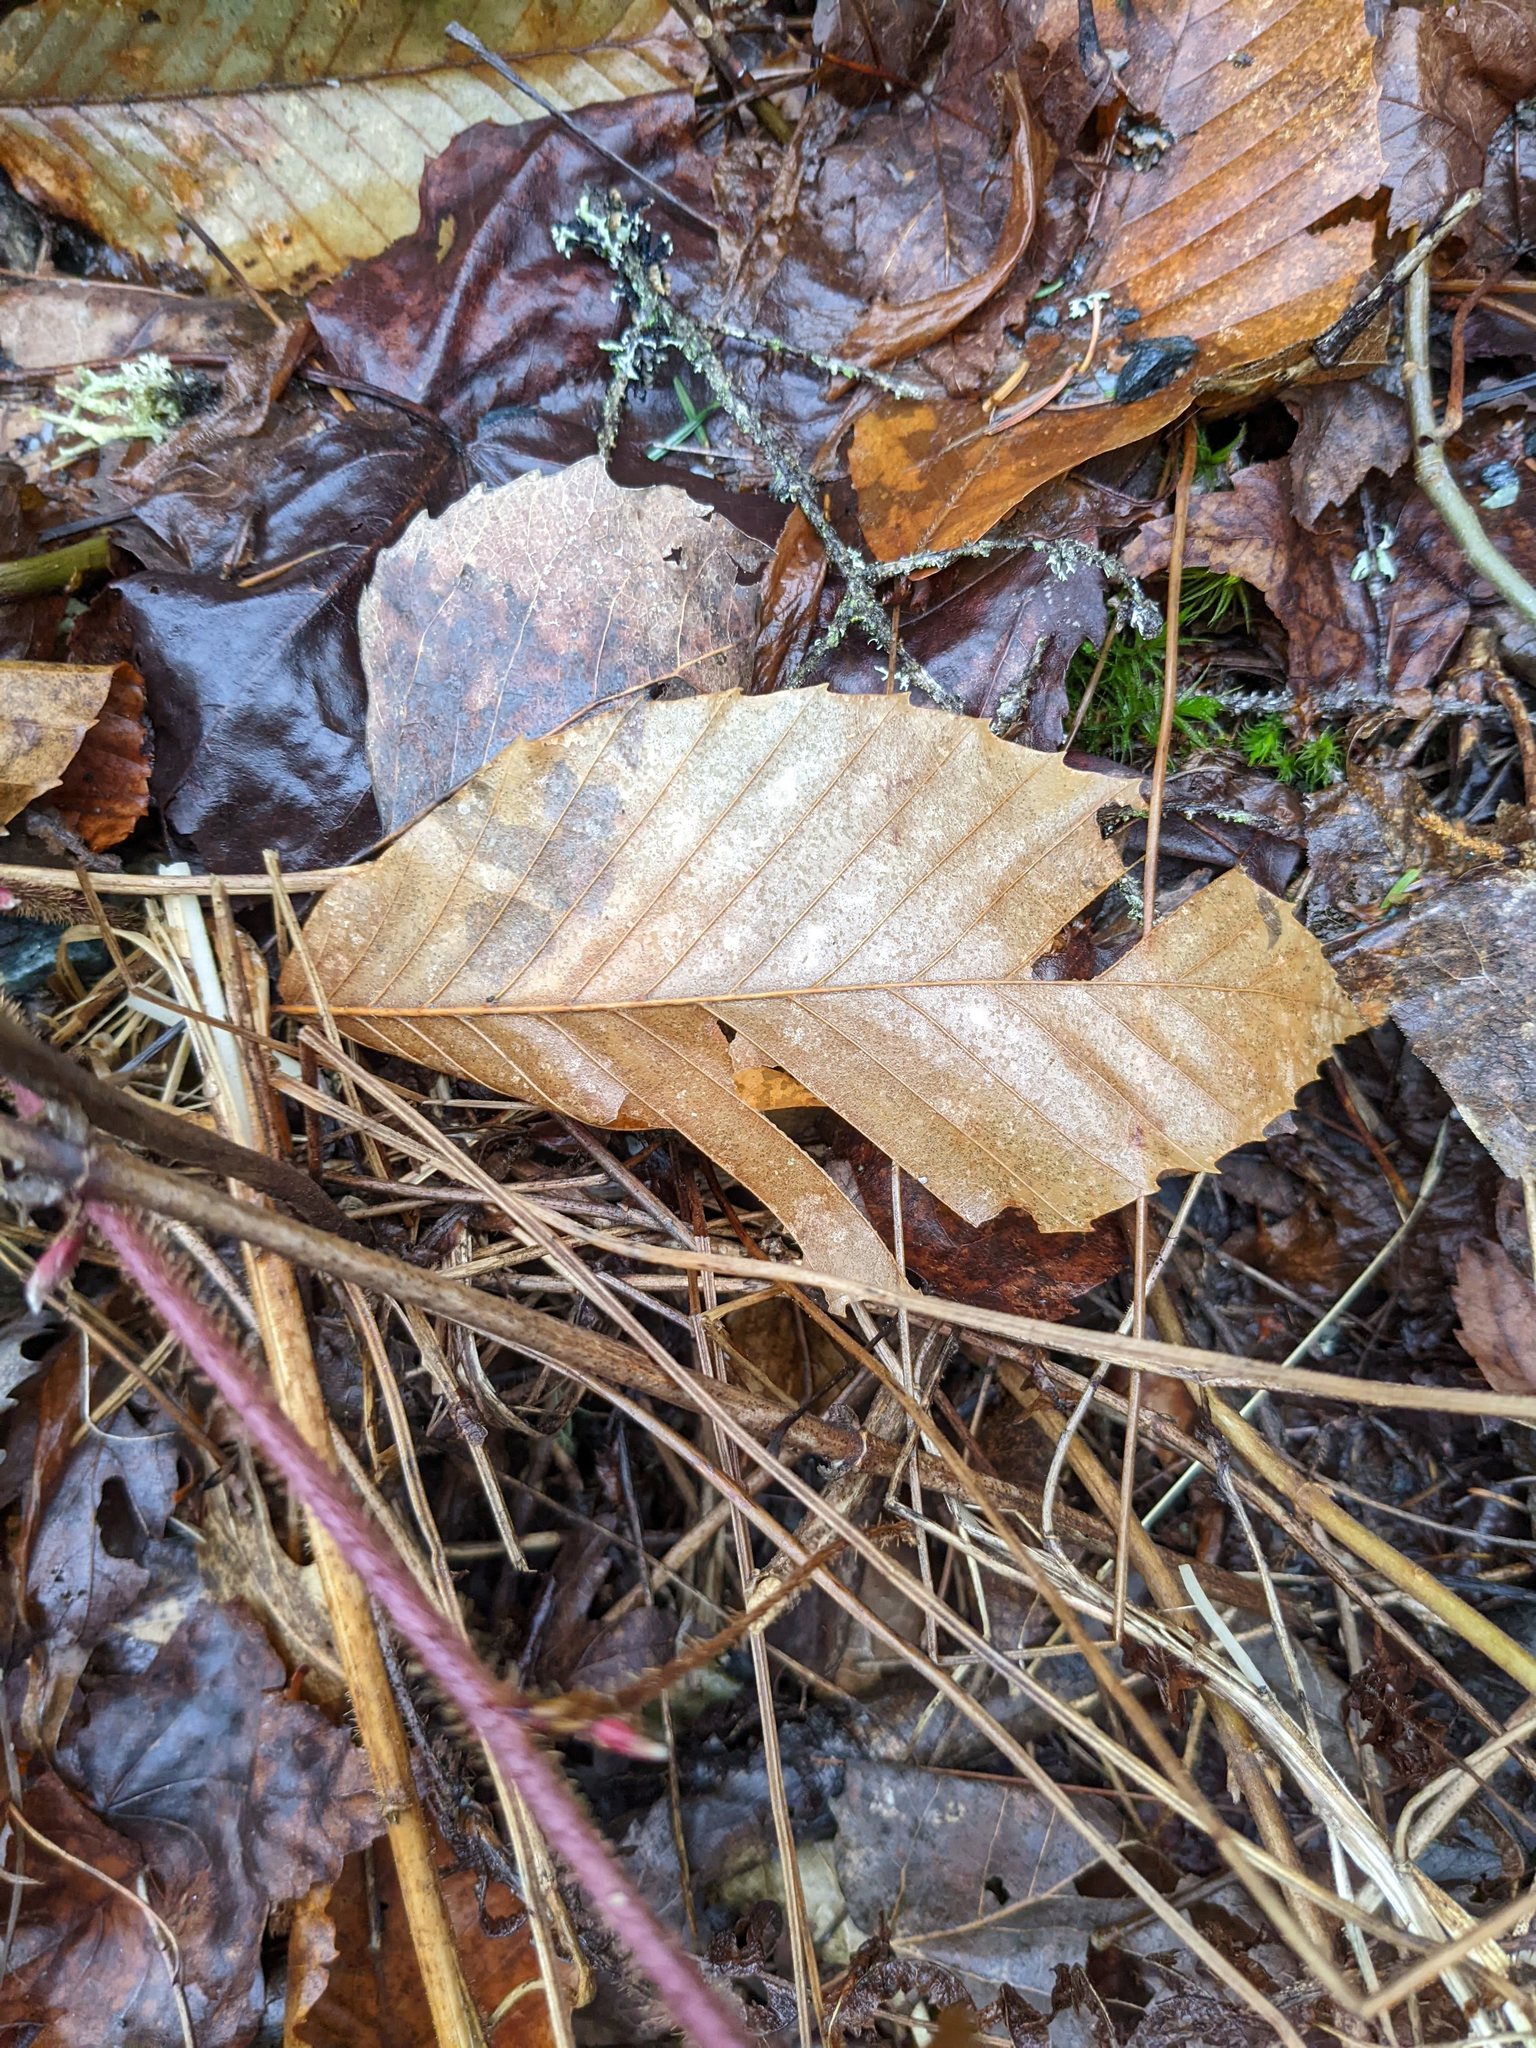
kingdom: Plantae
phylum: Tracheophyta
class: Magnoliopsida
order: Fagales
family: Fagaceae
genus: Fagus
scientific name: Fagus grandifolia
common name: American beech
